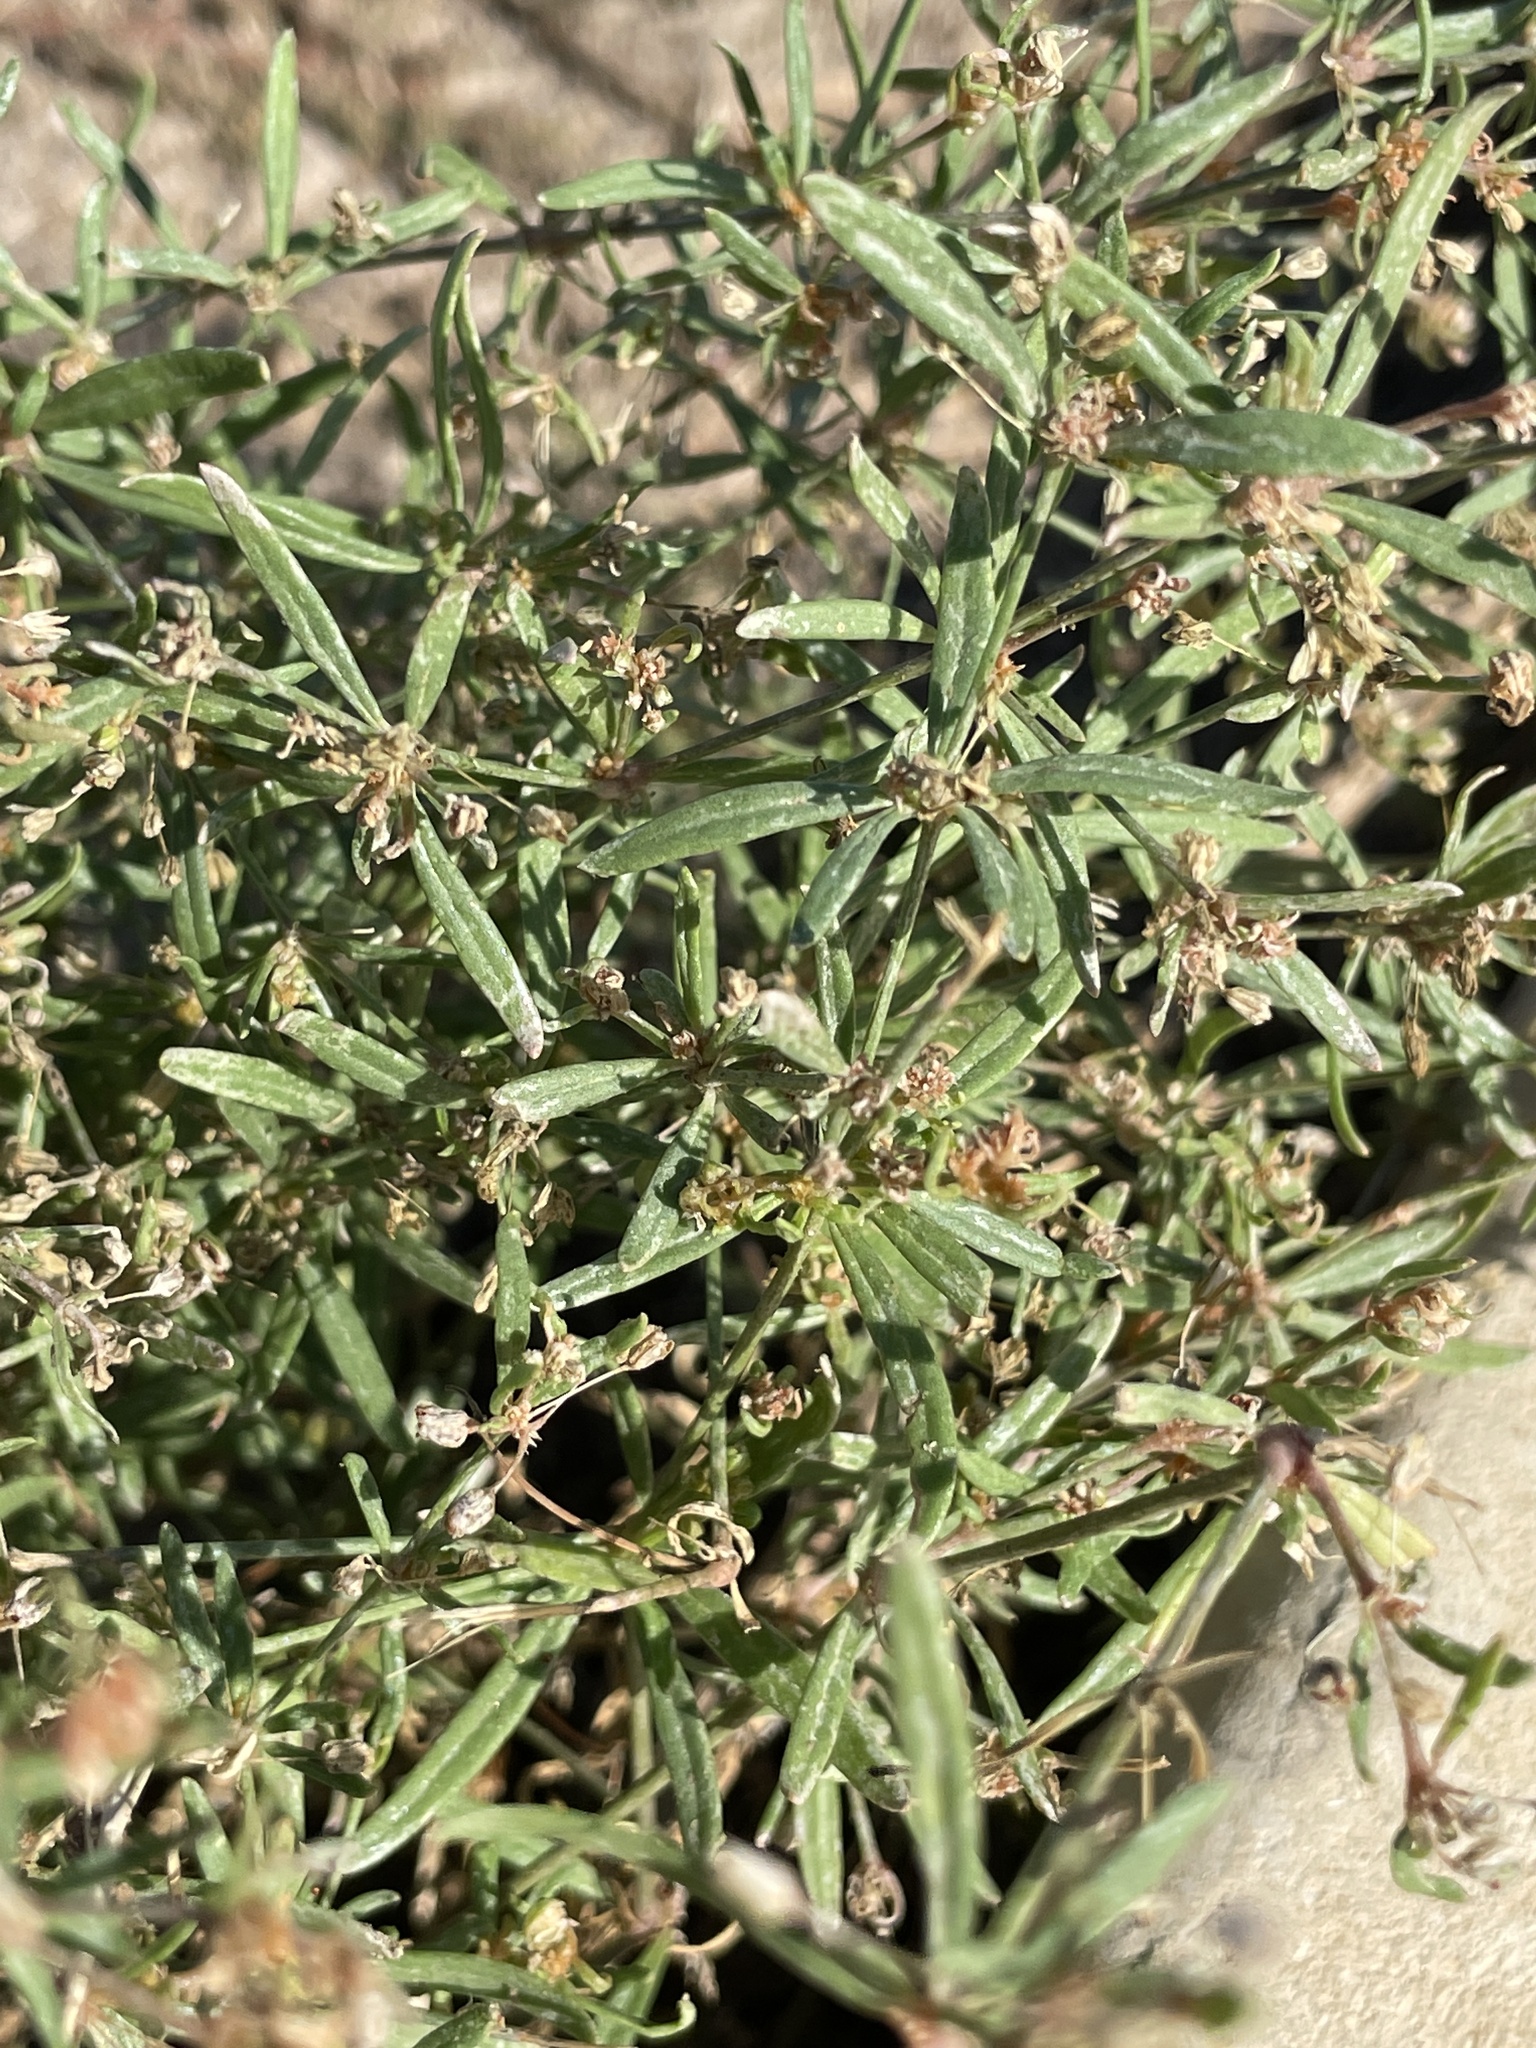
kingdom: Plantae
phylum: Tracheophyta
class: Magnoliopsida
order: Caryophyllales
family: Molluginaceae
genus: Mollugo
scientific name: Mollugo verticillata
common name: Green carpetweed
